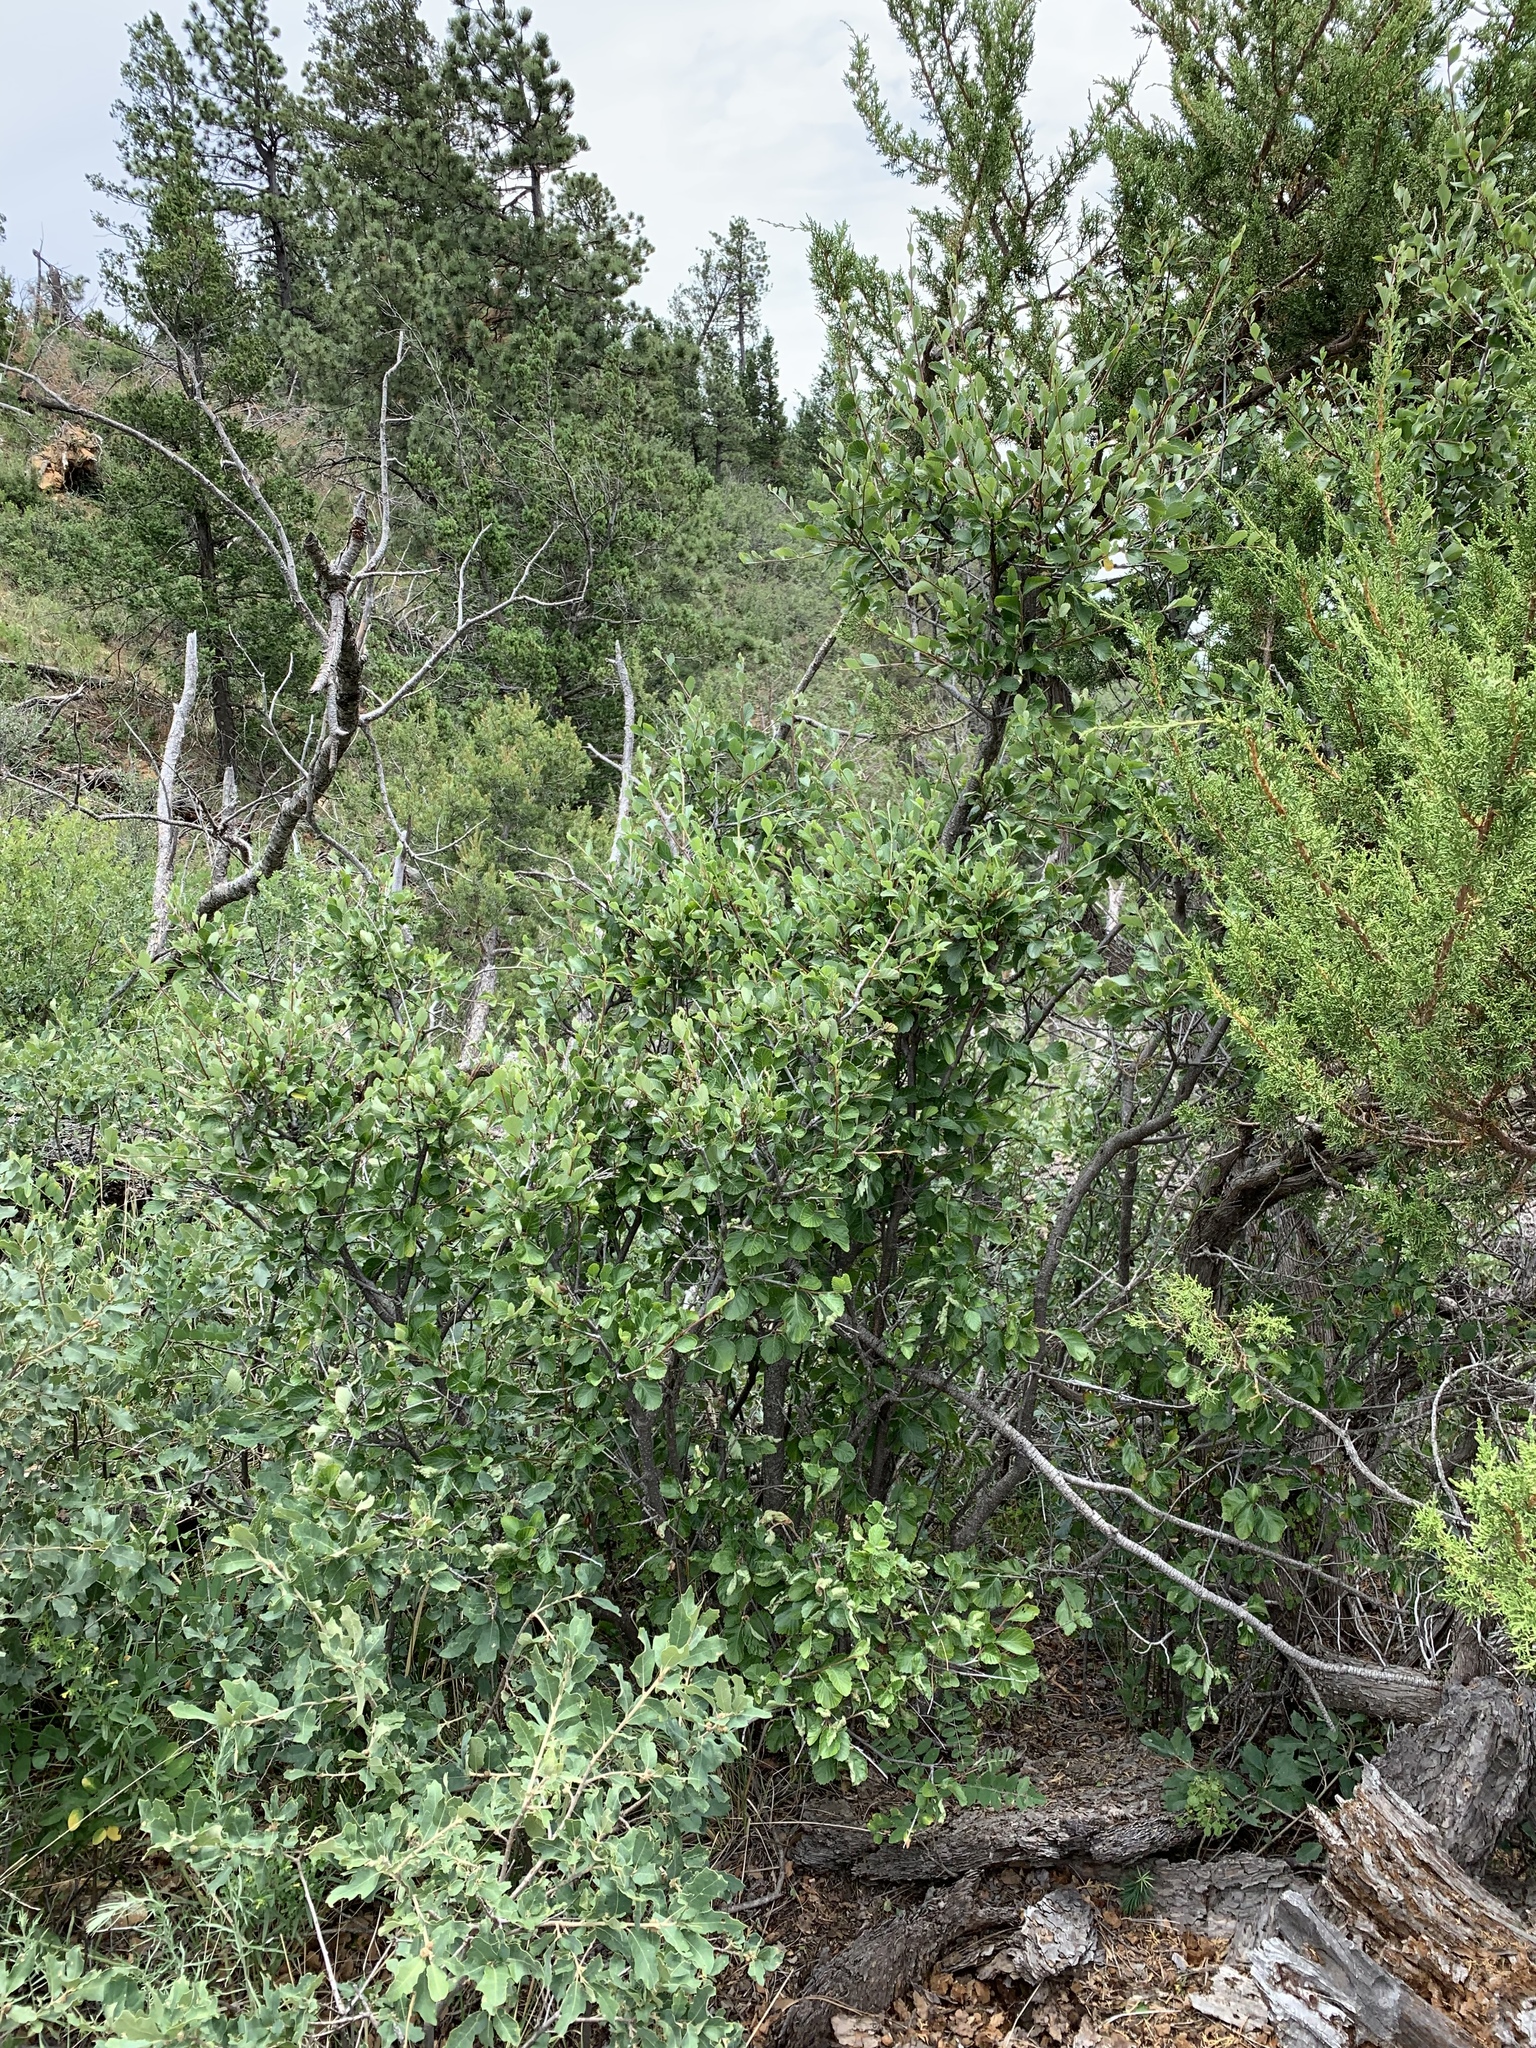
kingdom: Plantae
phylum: Tracheophyta
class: Magnoliopsida
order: Rosales
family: Rosaceae
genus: Cercocarpus
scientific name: Cercocarpus montanus
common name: Alder-leaf cercocarpus
